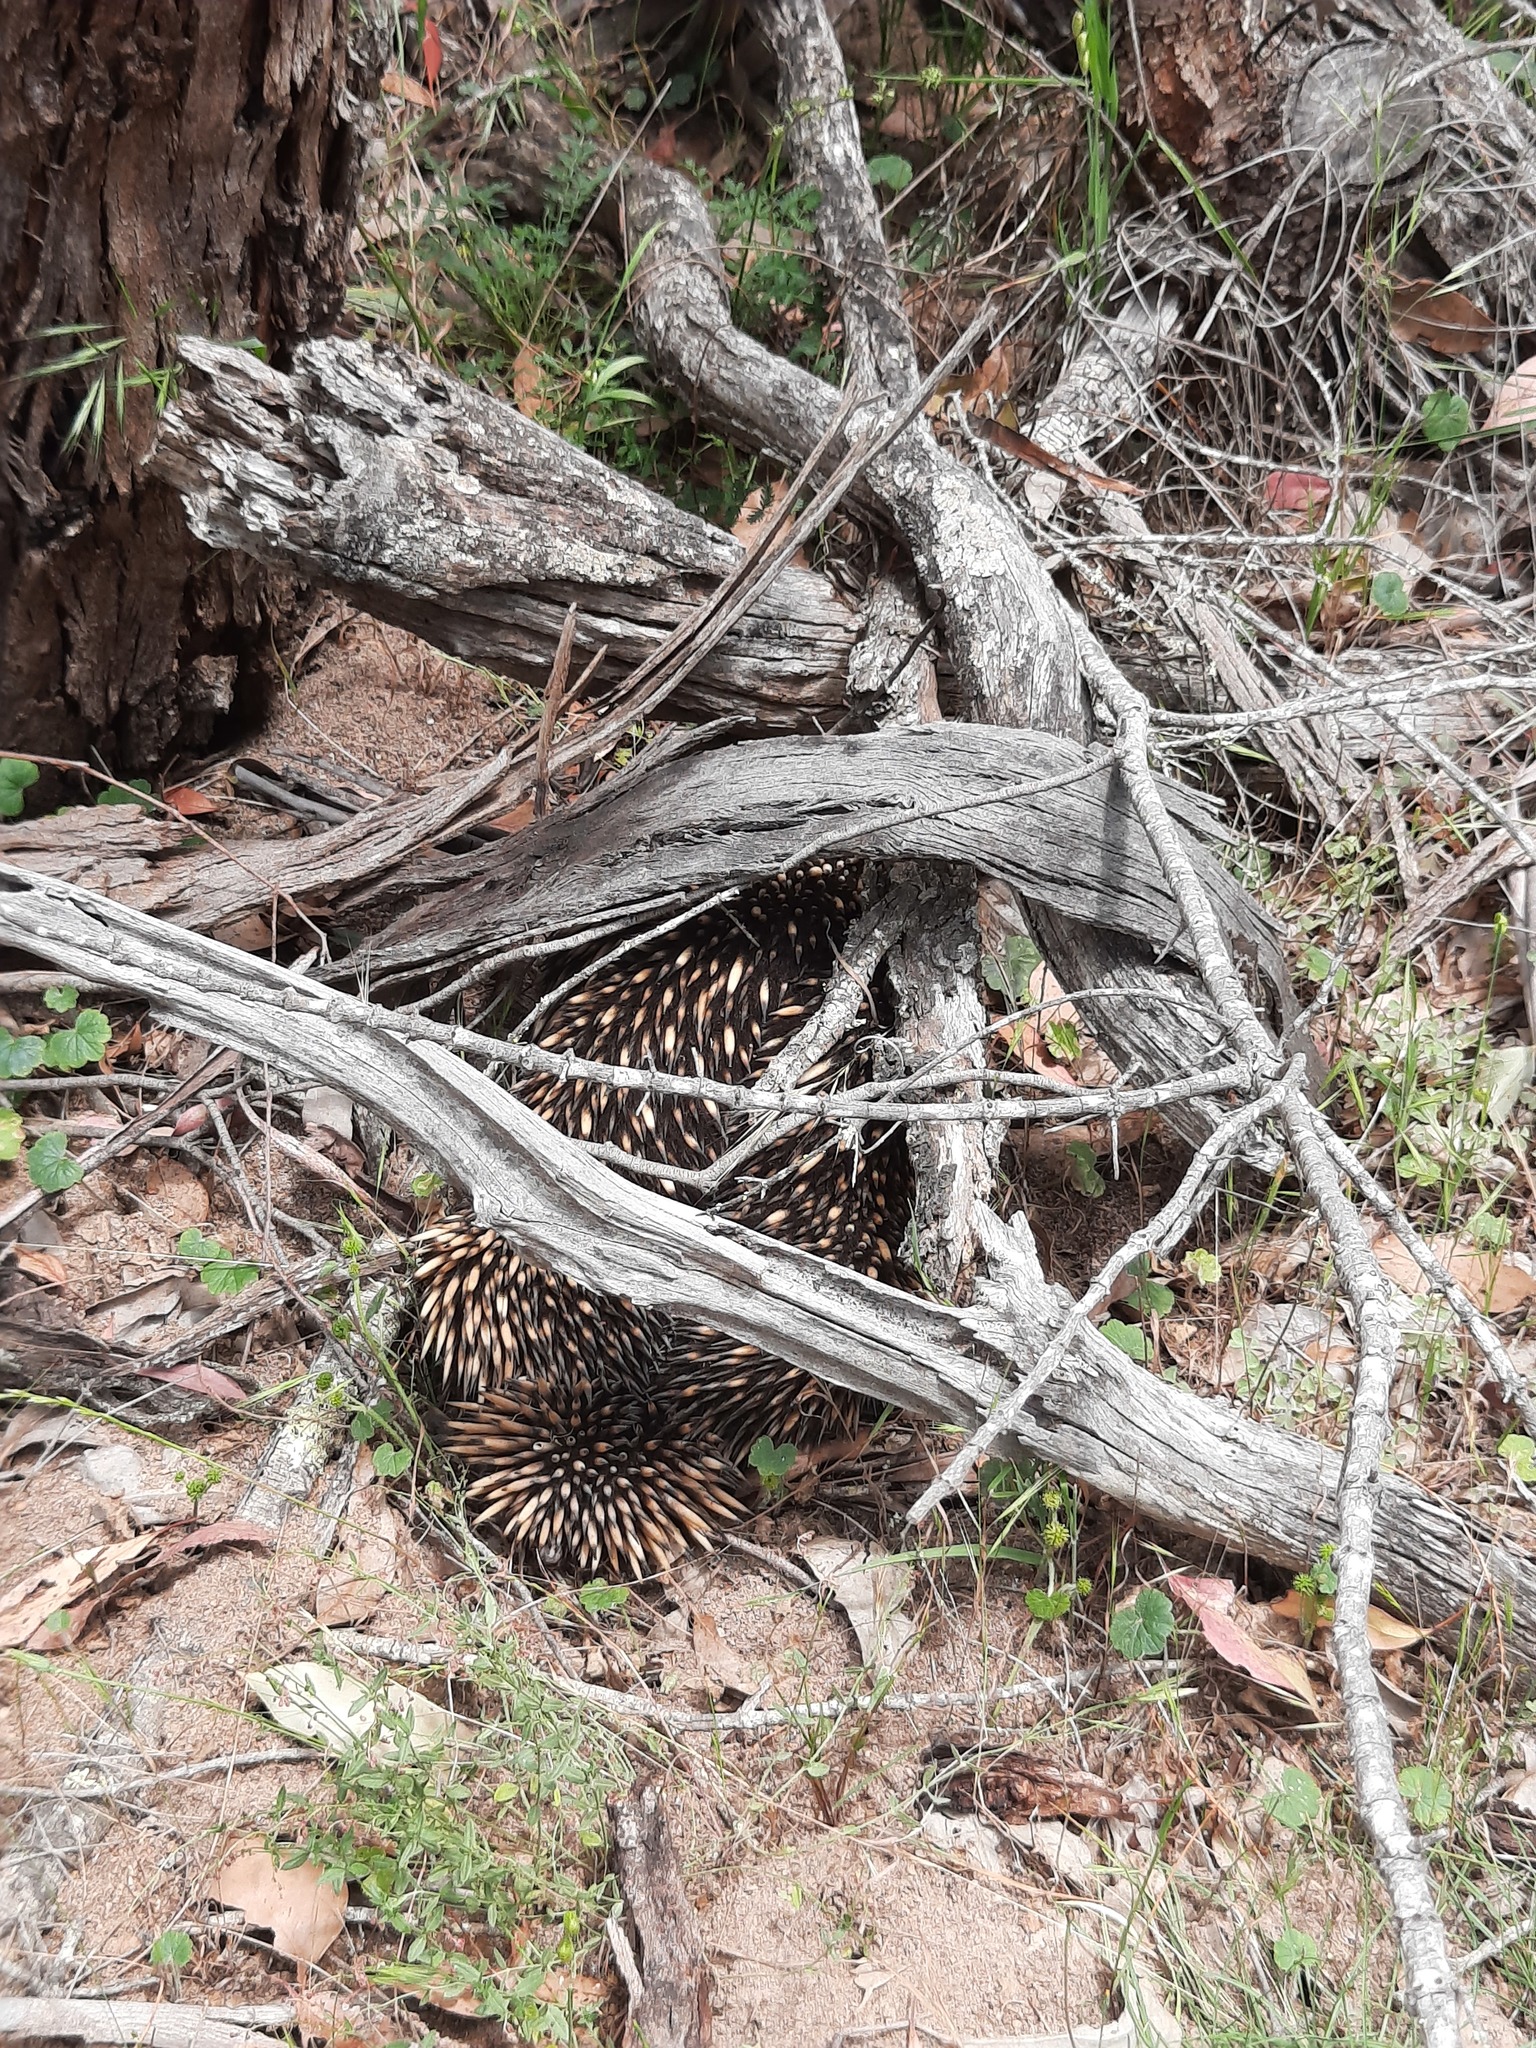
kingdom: Animalia
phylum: Chordata
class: Mammalia
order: Monotremata
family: Tachyglossidae
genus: Tachyglossus
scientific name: Tachyglossus aculeatus
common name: Short-beaked echidna
